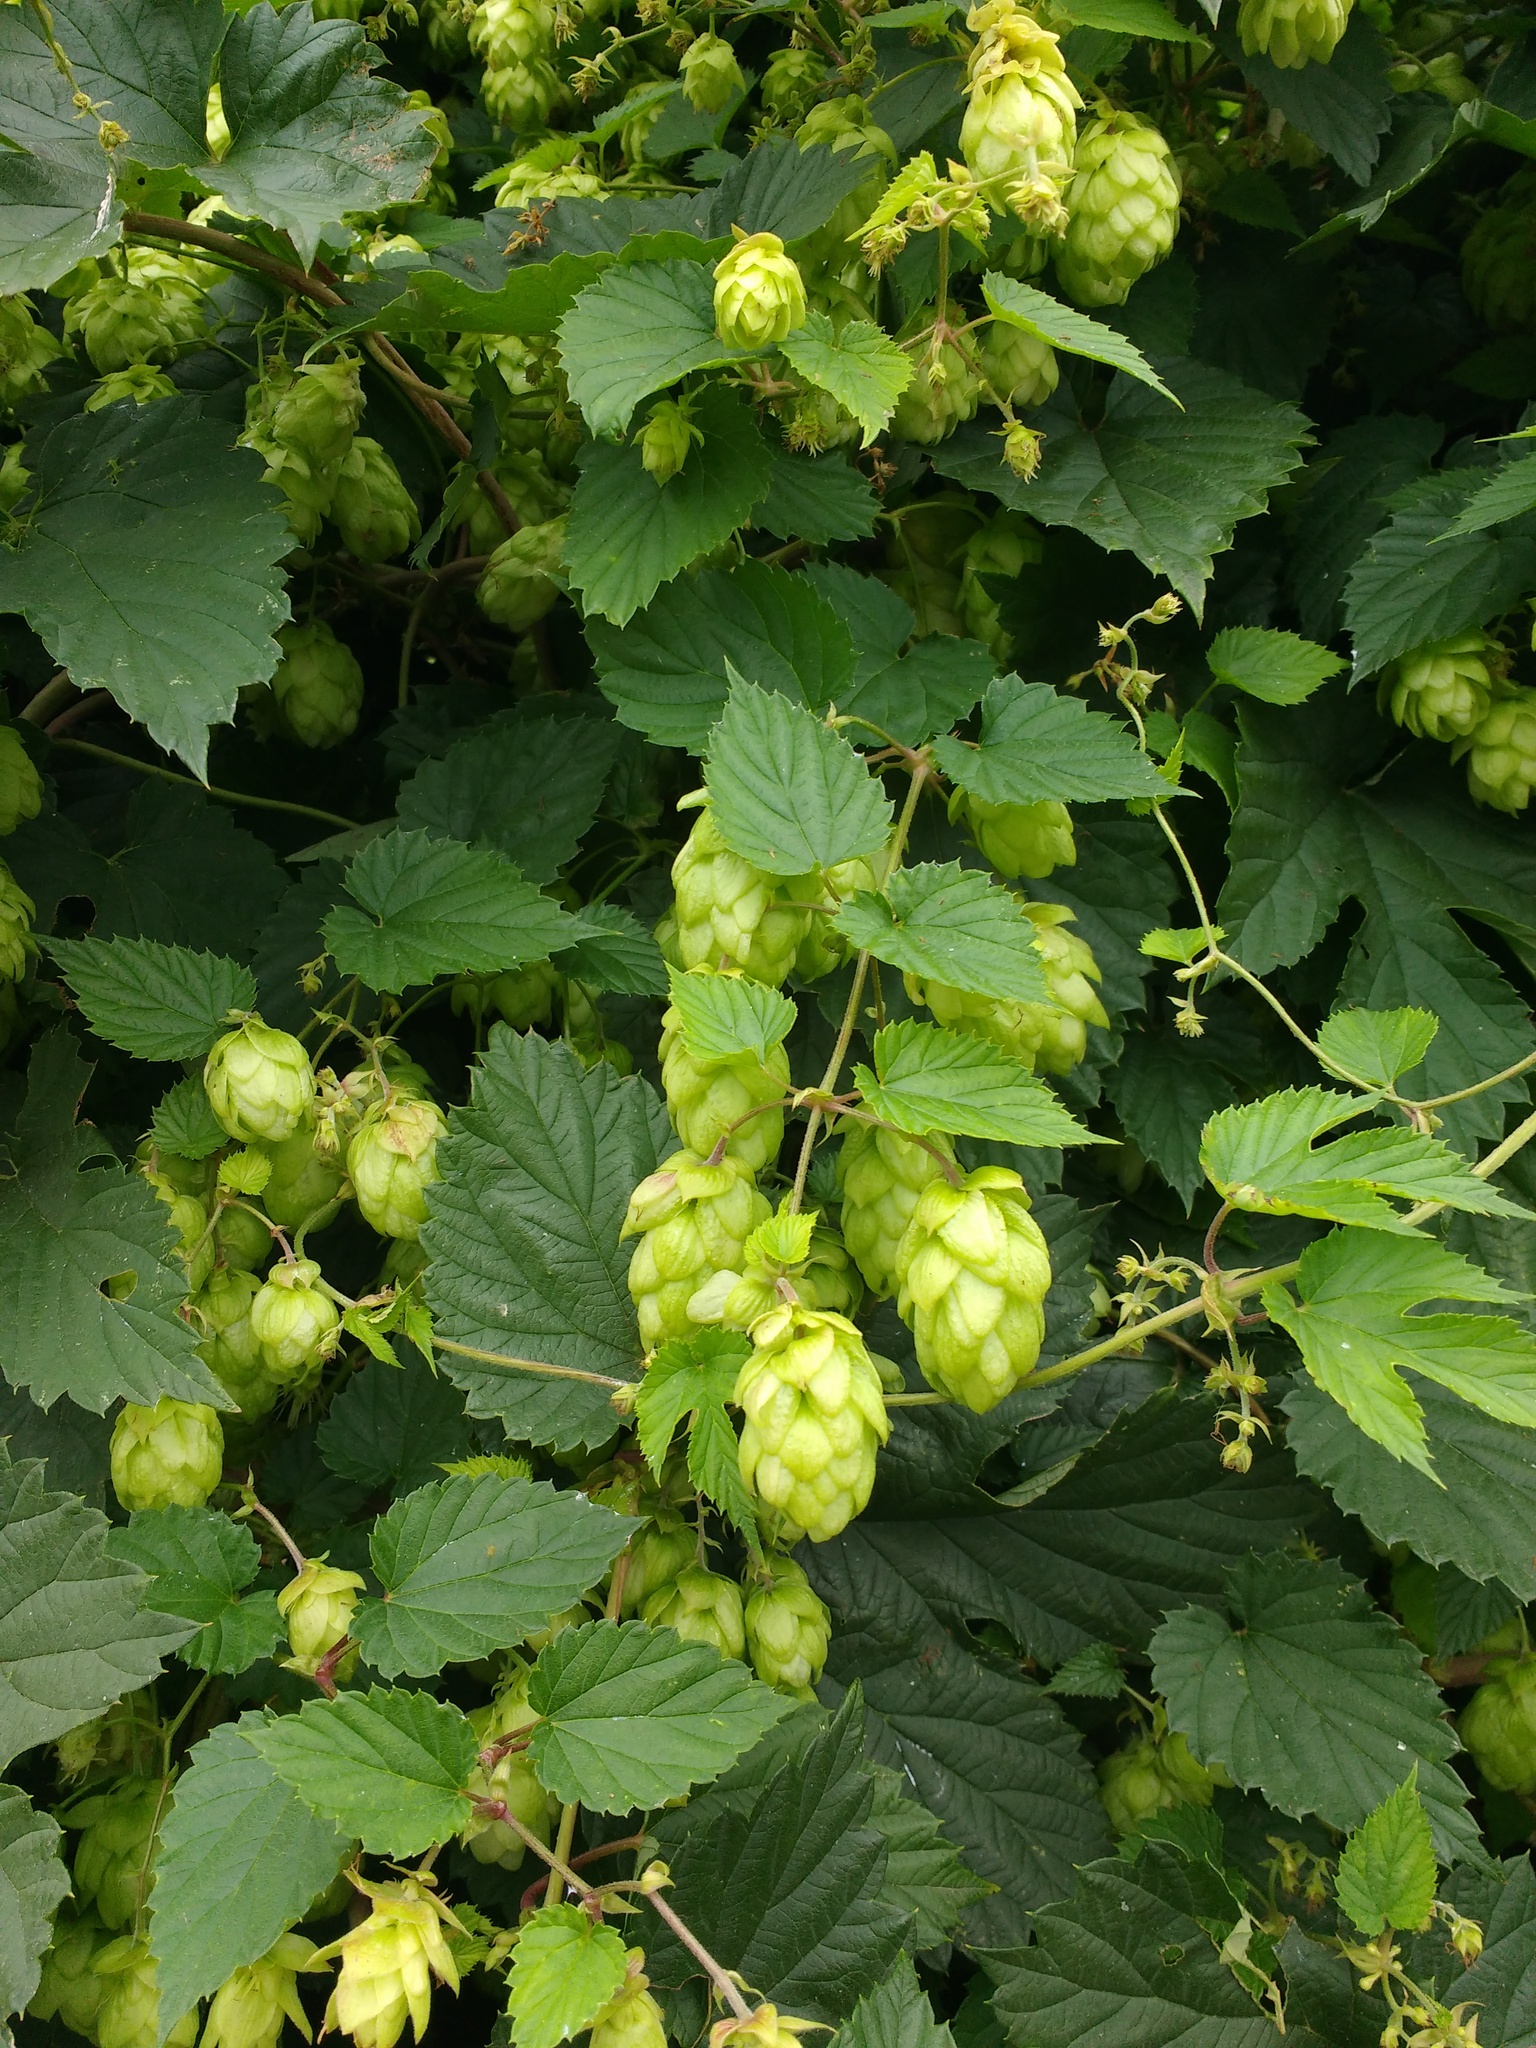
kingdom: Plantae
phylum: Tracheophyta
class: Magnoliopsida
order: Rosales
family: Cannabaceae
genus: Humulus
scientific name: Humulus lupulus
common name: Hop
